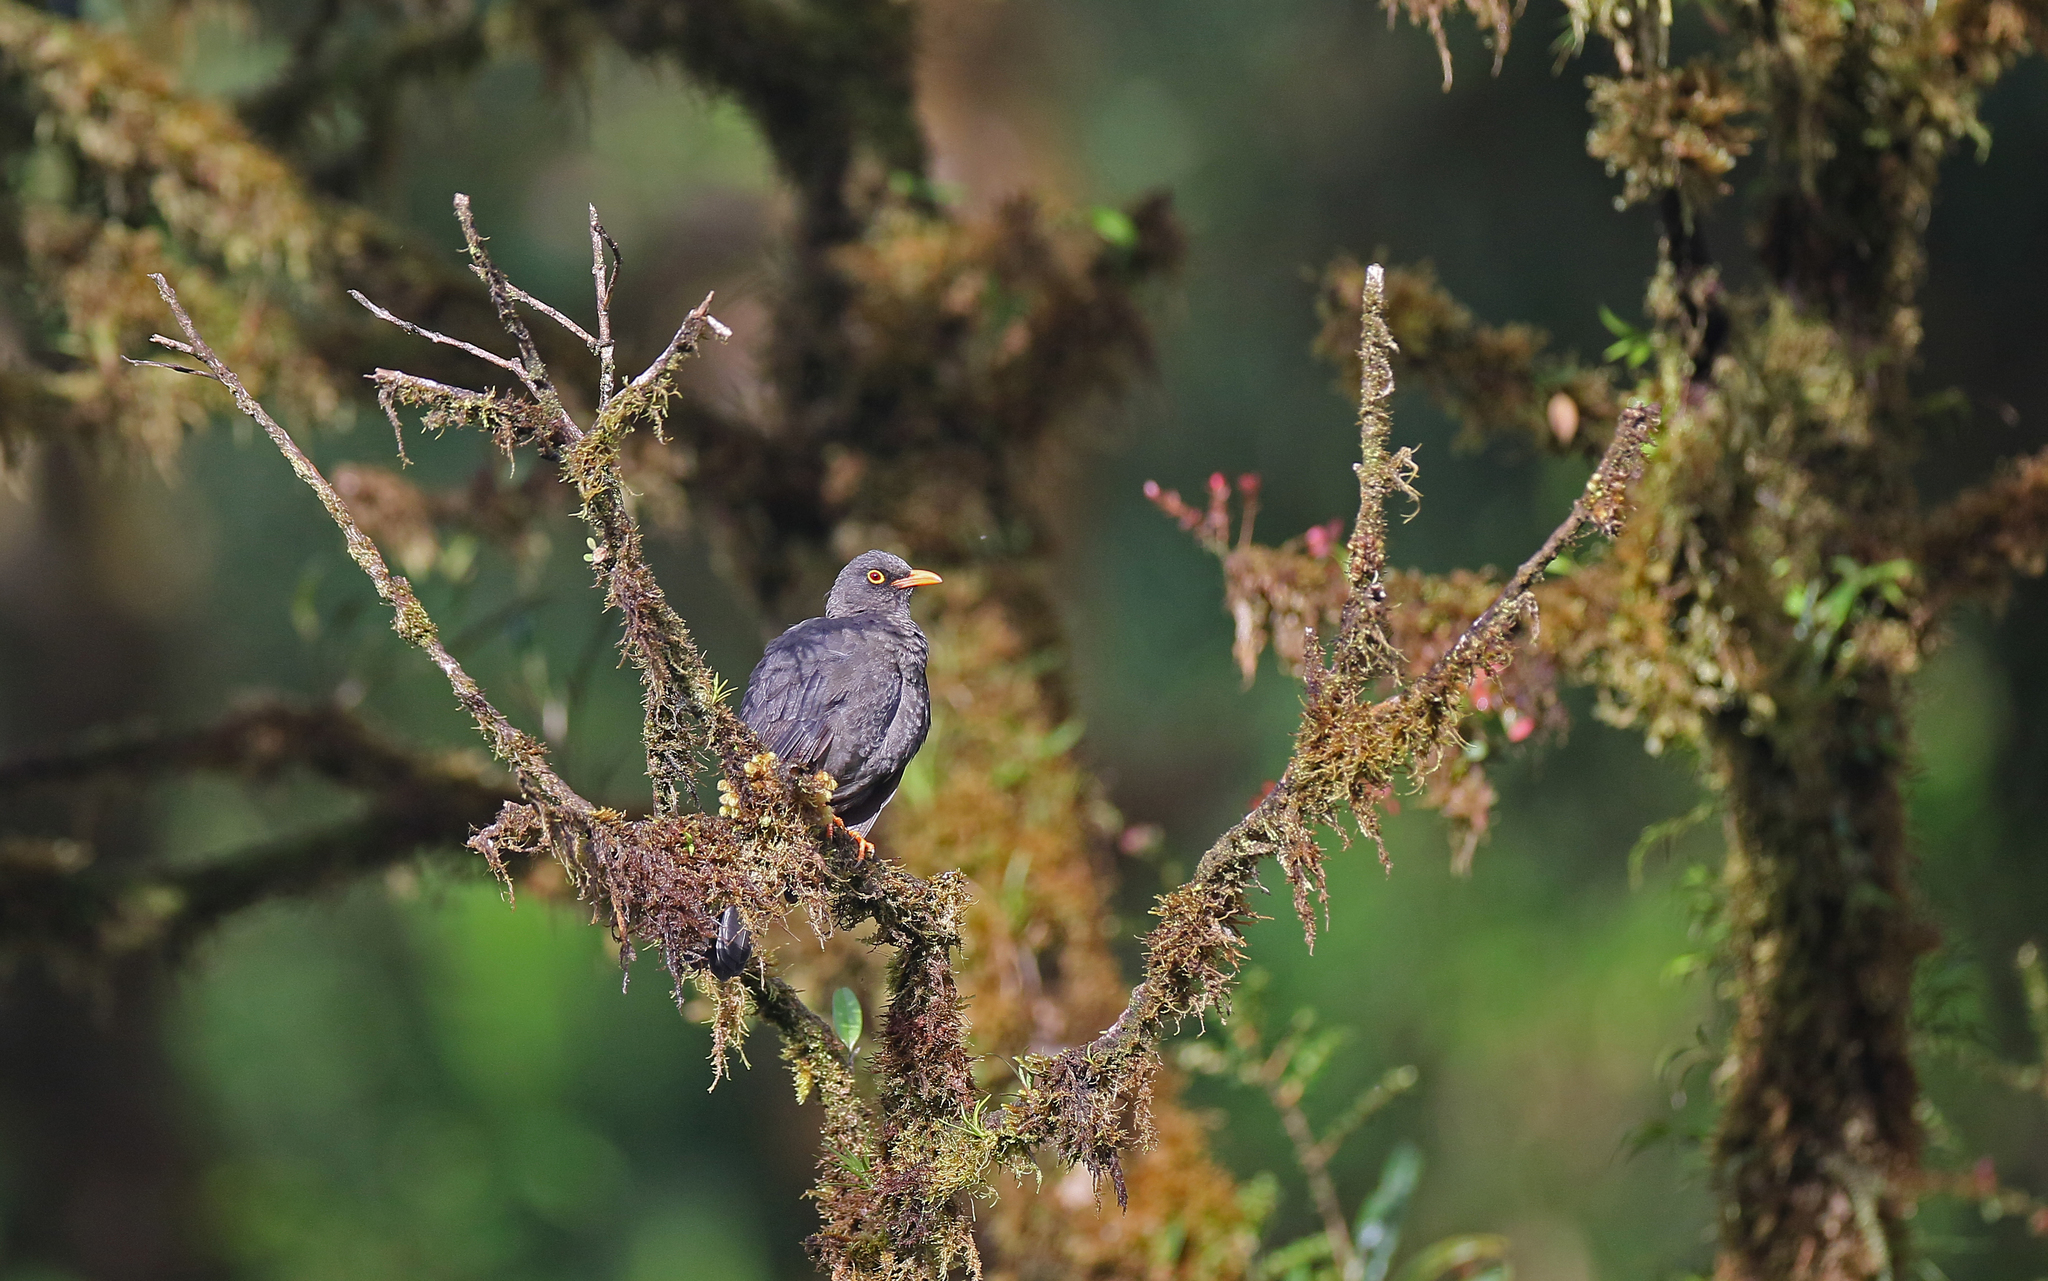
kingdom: Animalia
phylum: Chordata
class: Aves
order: Passeriformes
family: Turdidae
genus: Turdus
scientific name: Turdus fuscater
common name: Great thrush
